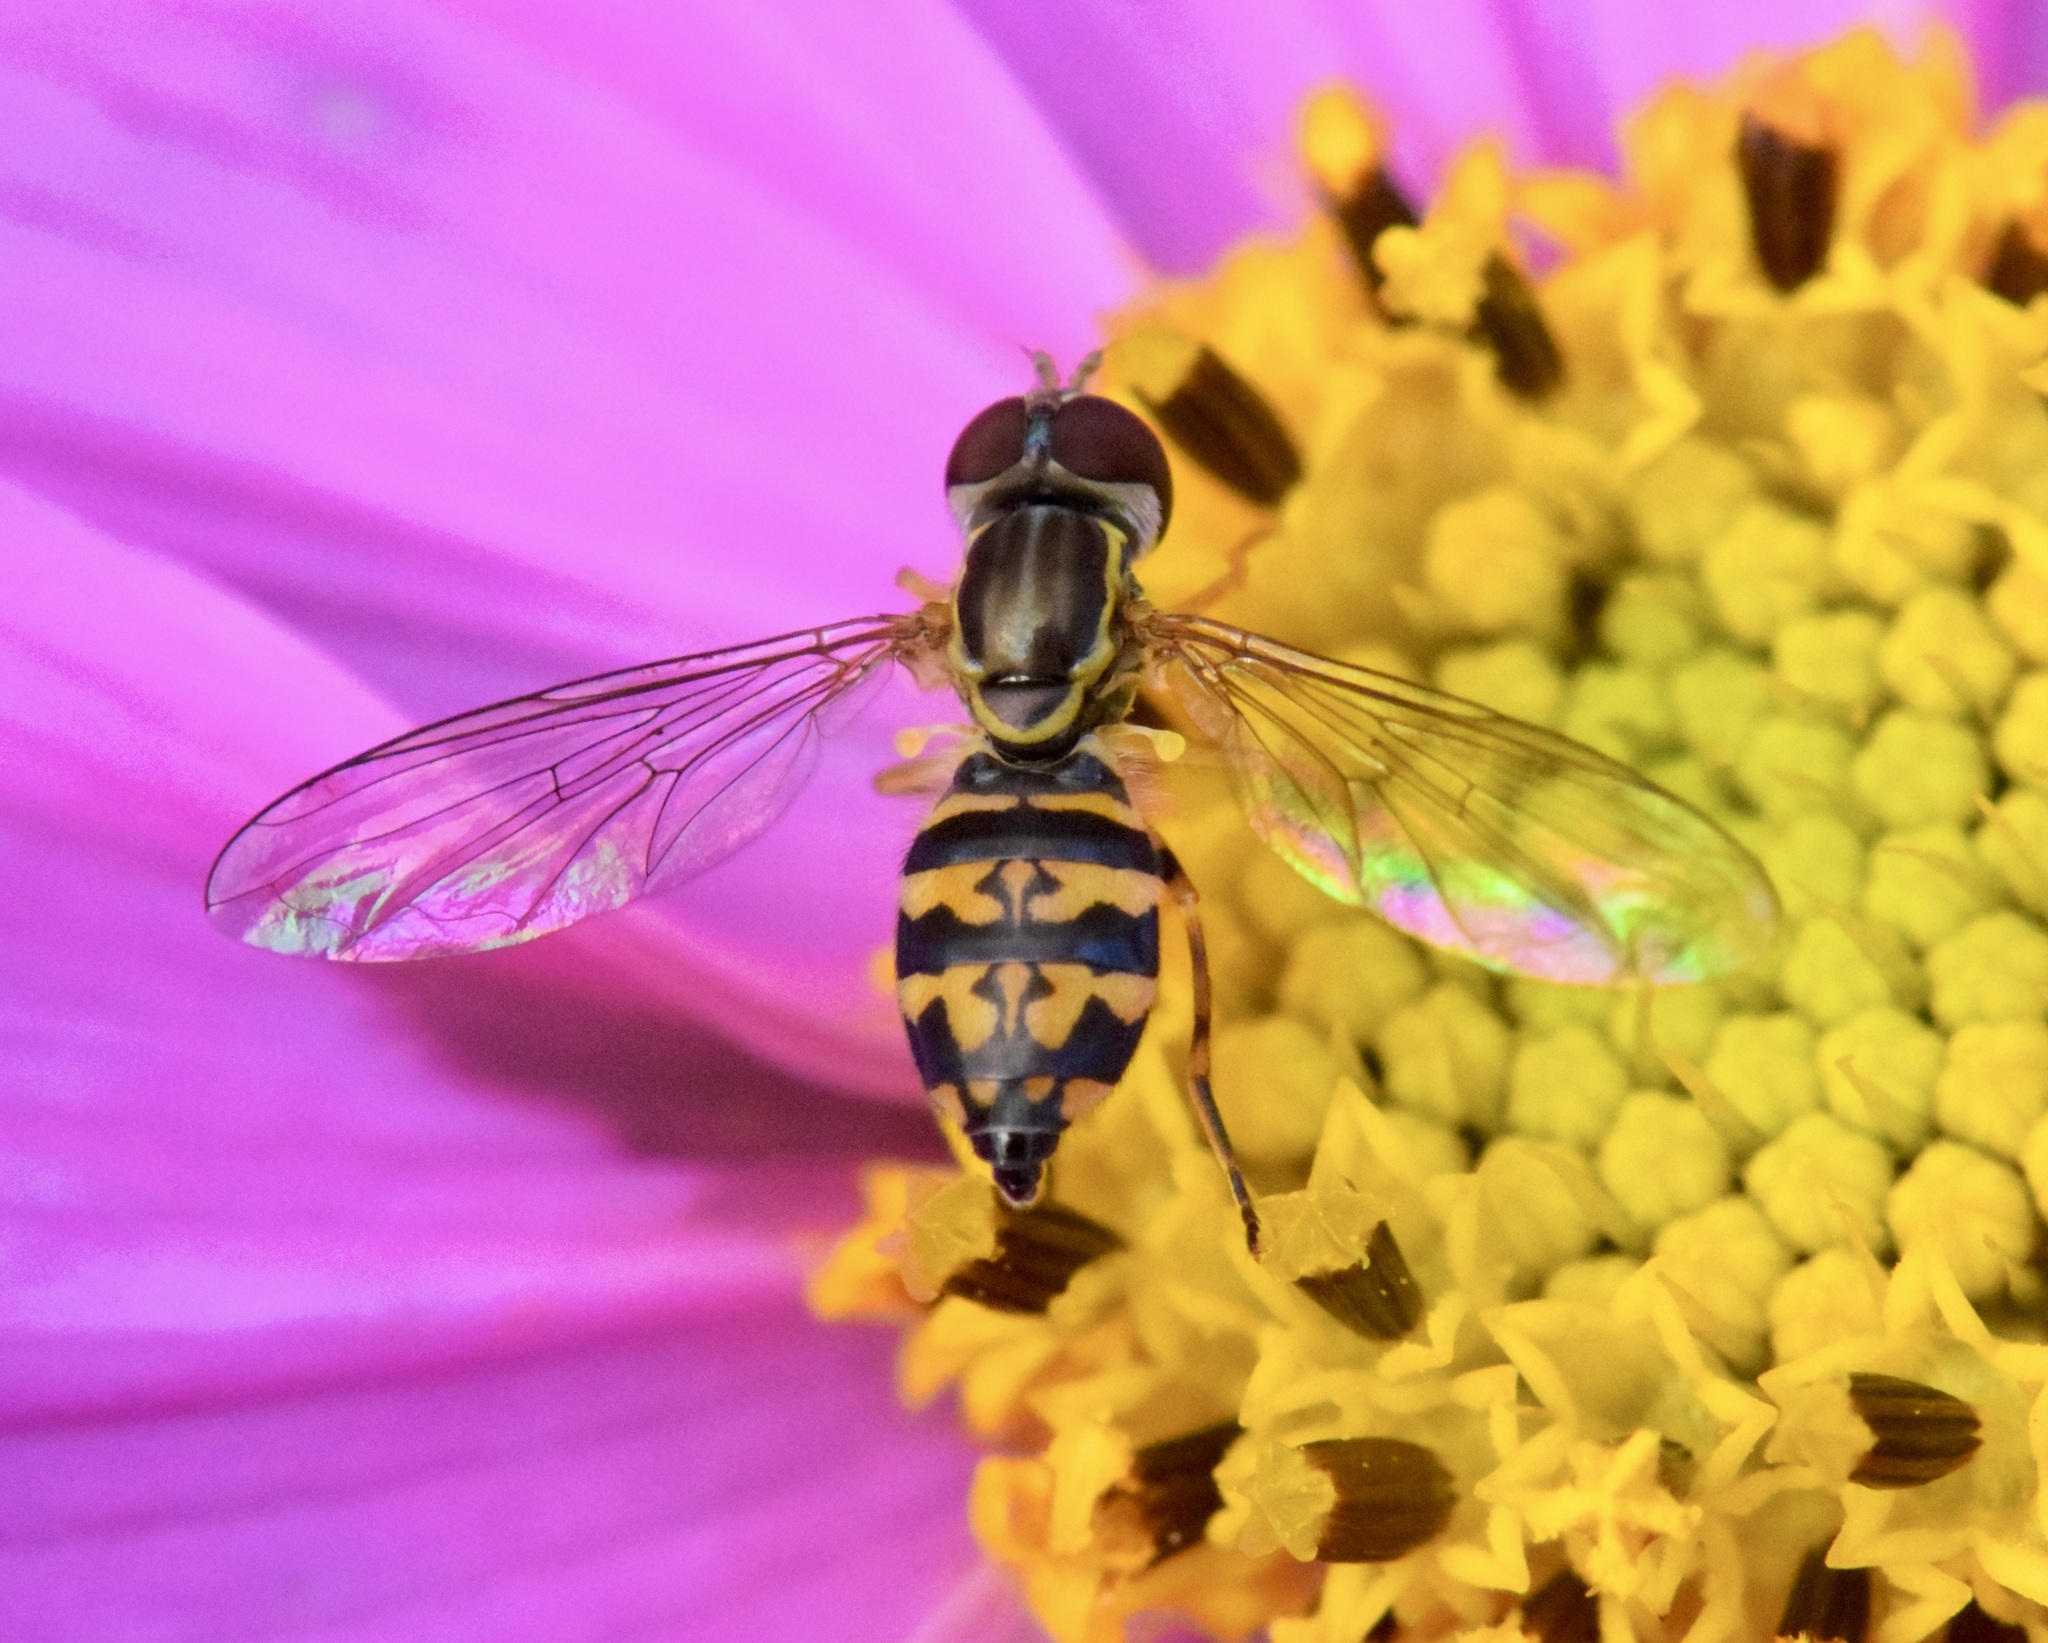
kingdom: Animalia
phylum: Arthropoda
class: Insecta
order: Diptera
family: Syrphidae
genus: Toxomerus
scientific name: Toxomerus geminatus
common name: Eastern calligrapher
